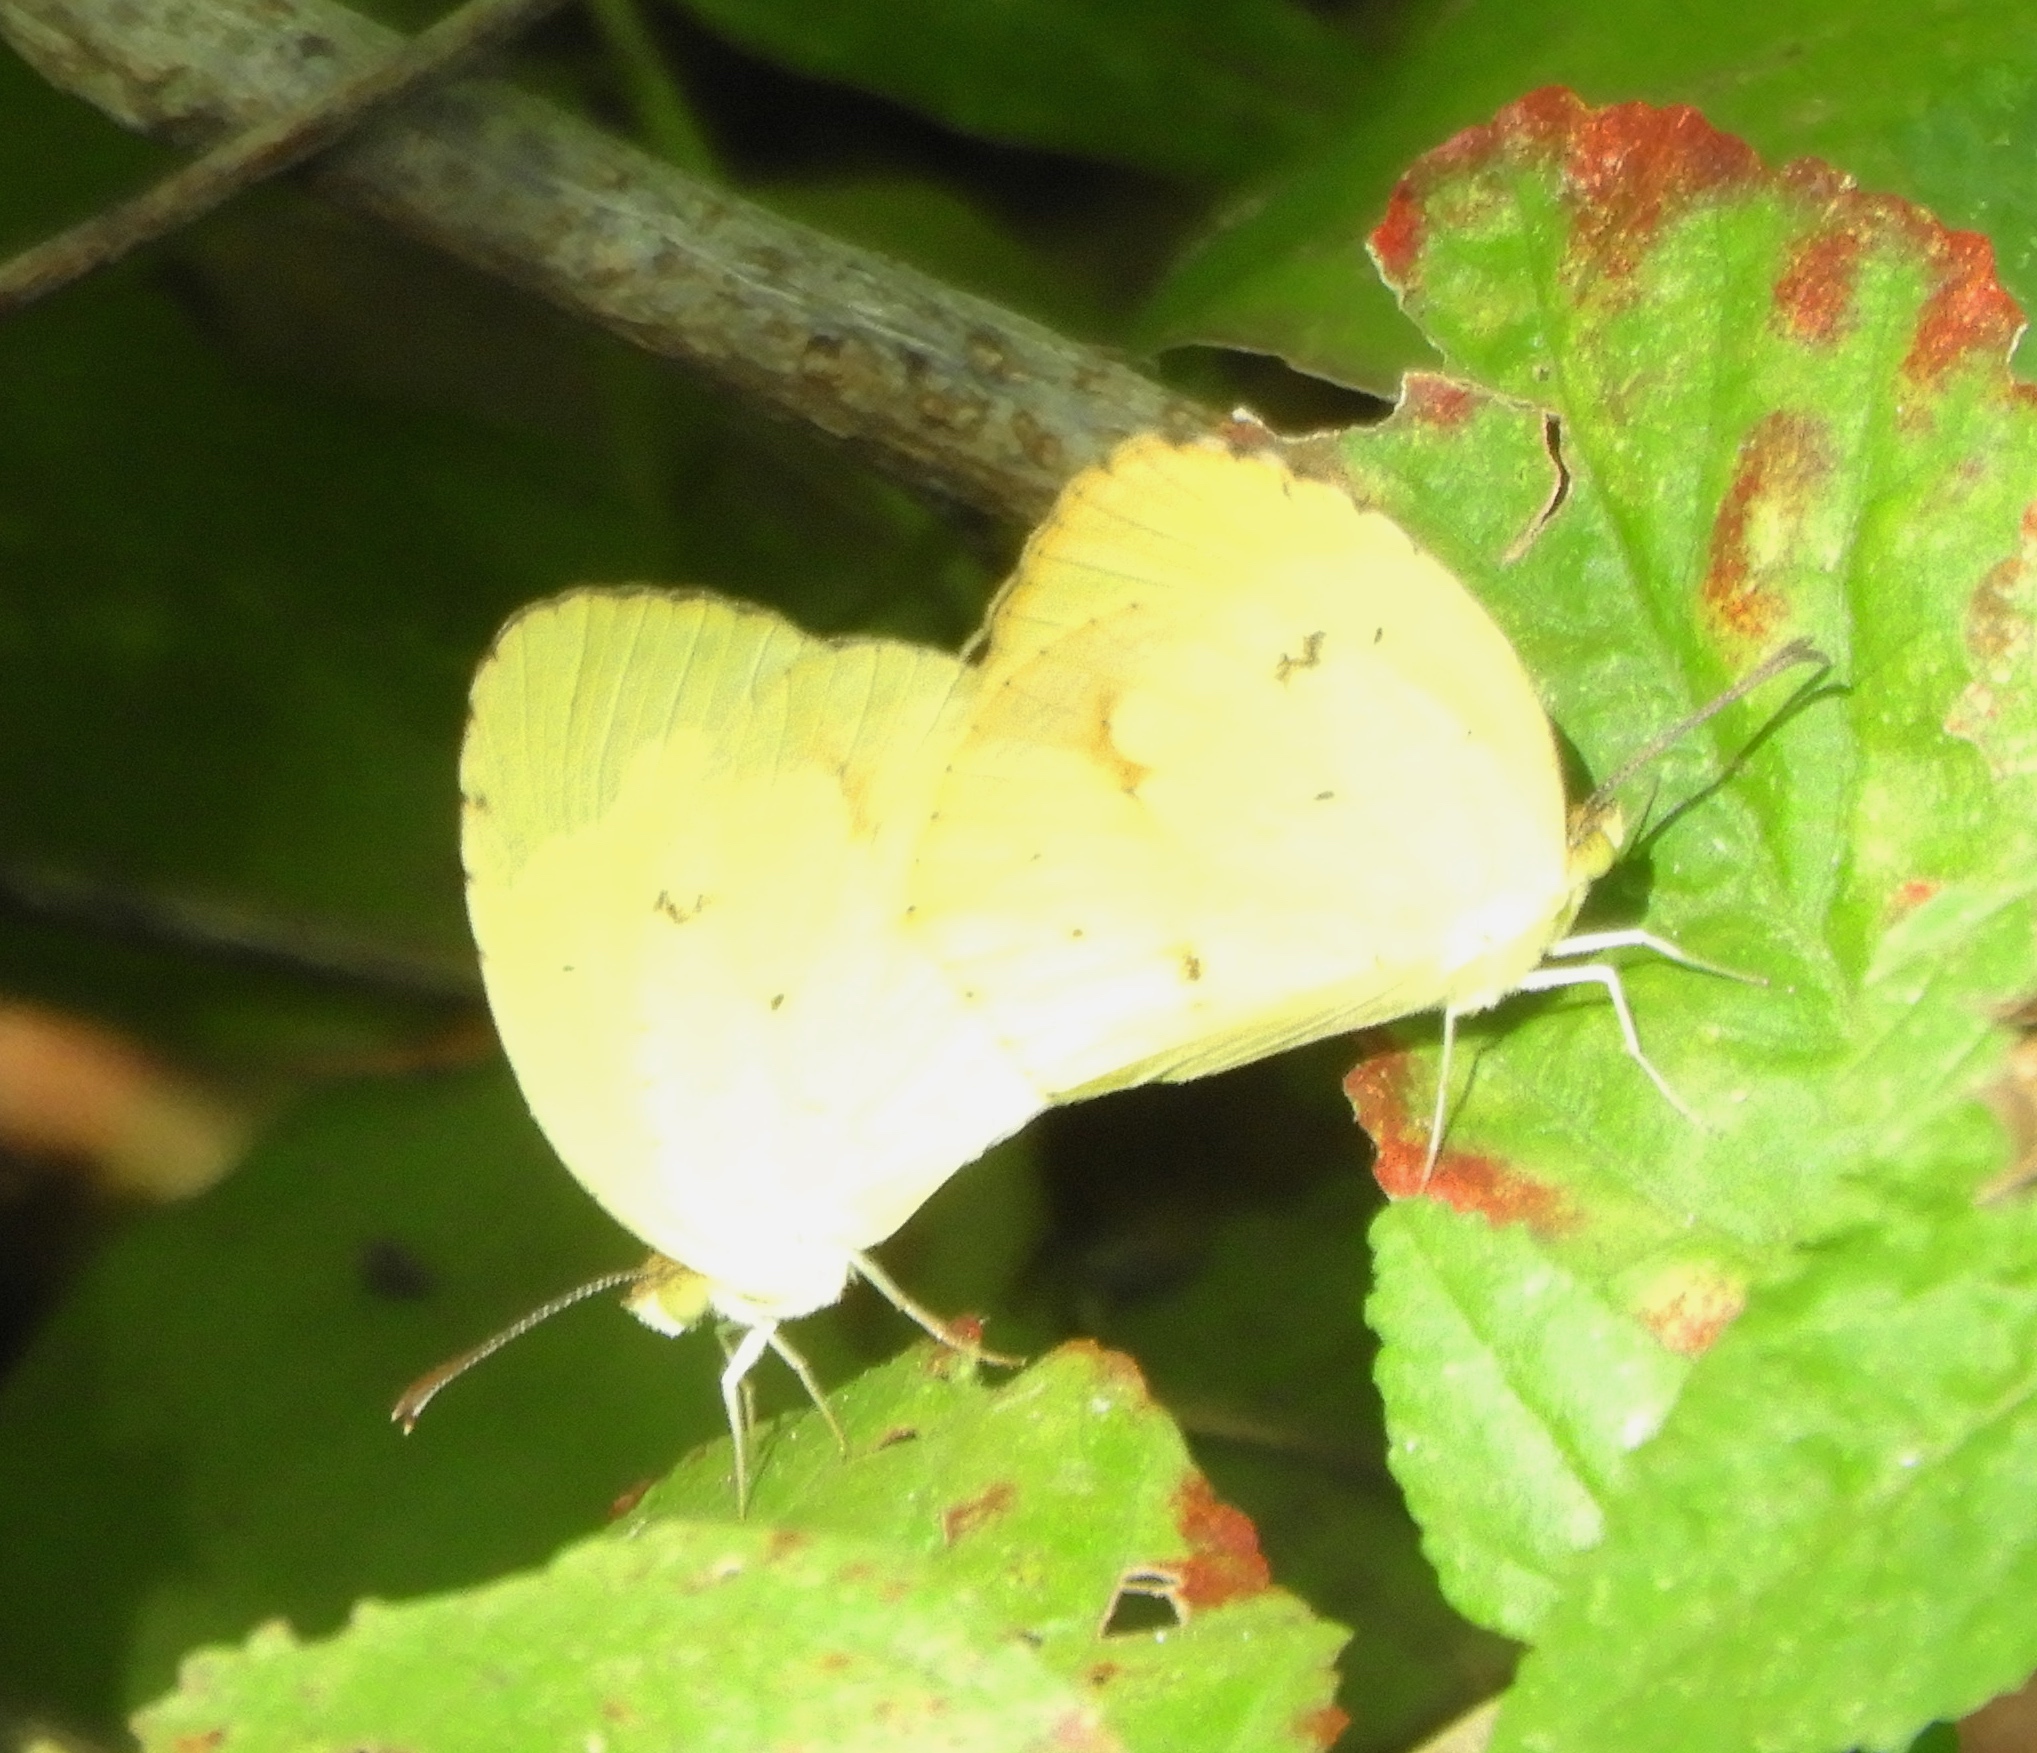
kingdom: Animalia
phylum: Arthropoda
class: Insecta
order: Lepidoptera
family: Pieridae
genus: Abaeis
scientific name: Abaeis boisduvaliana
